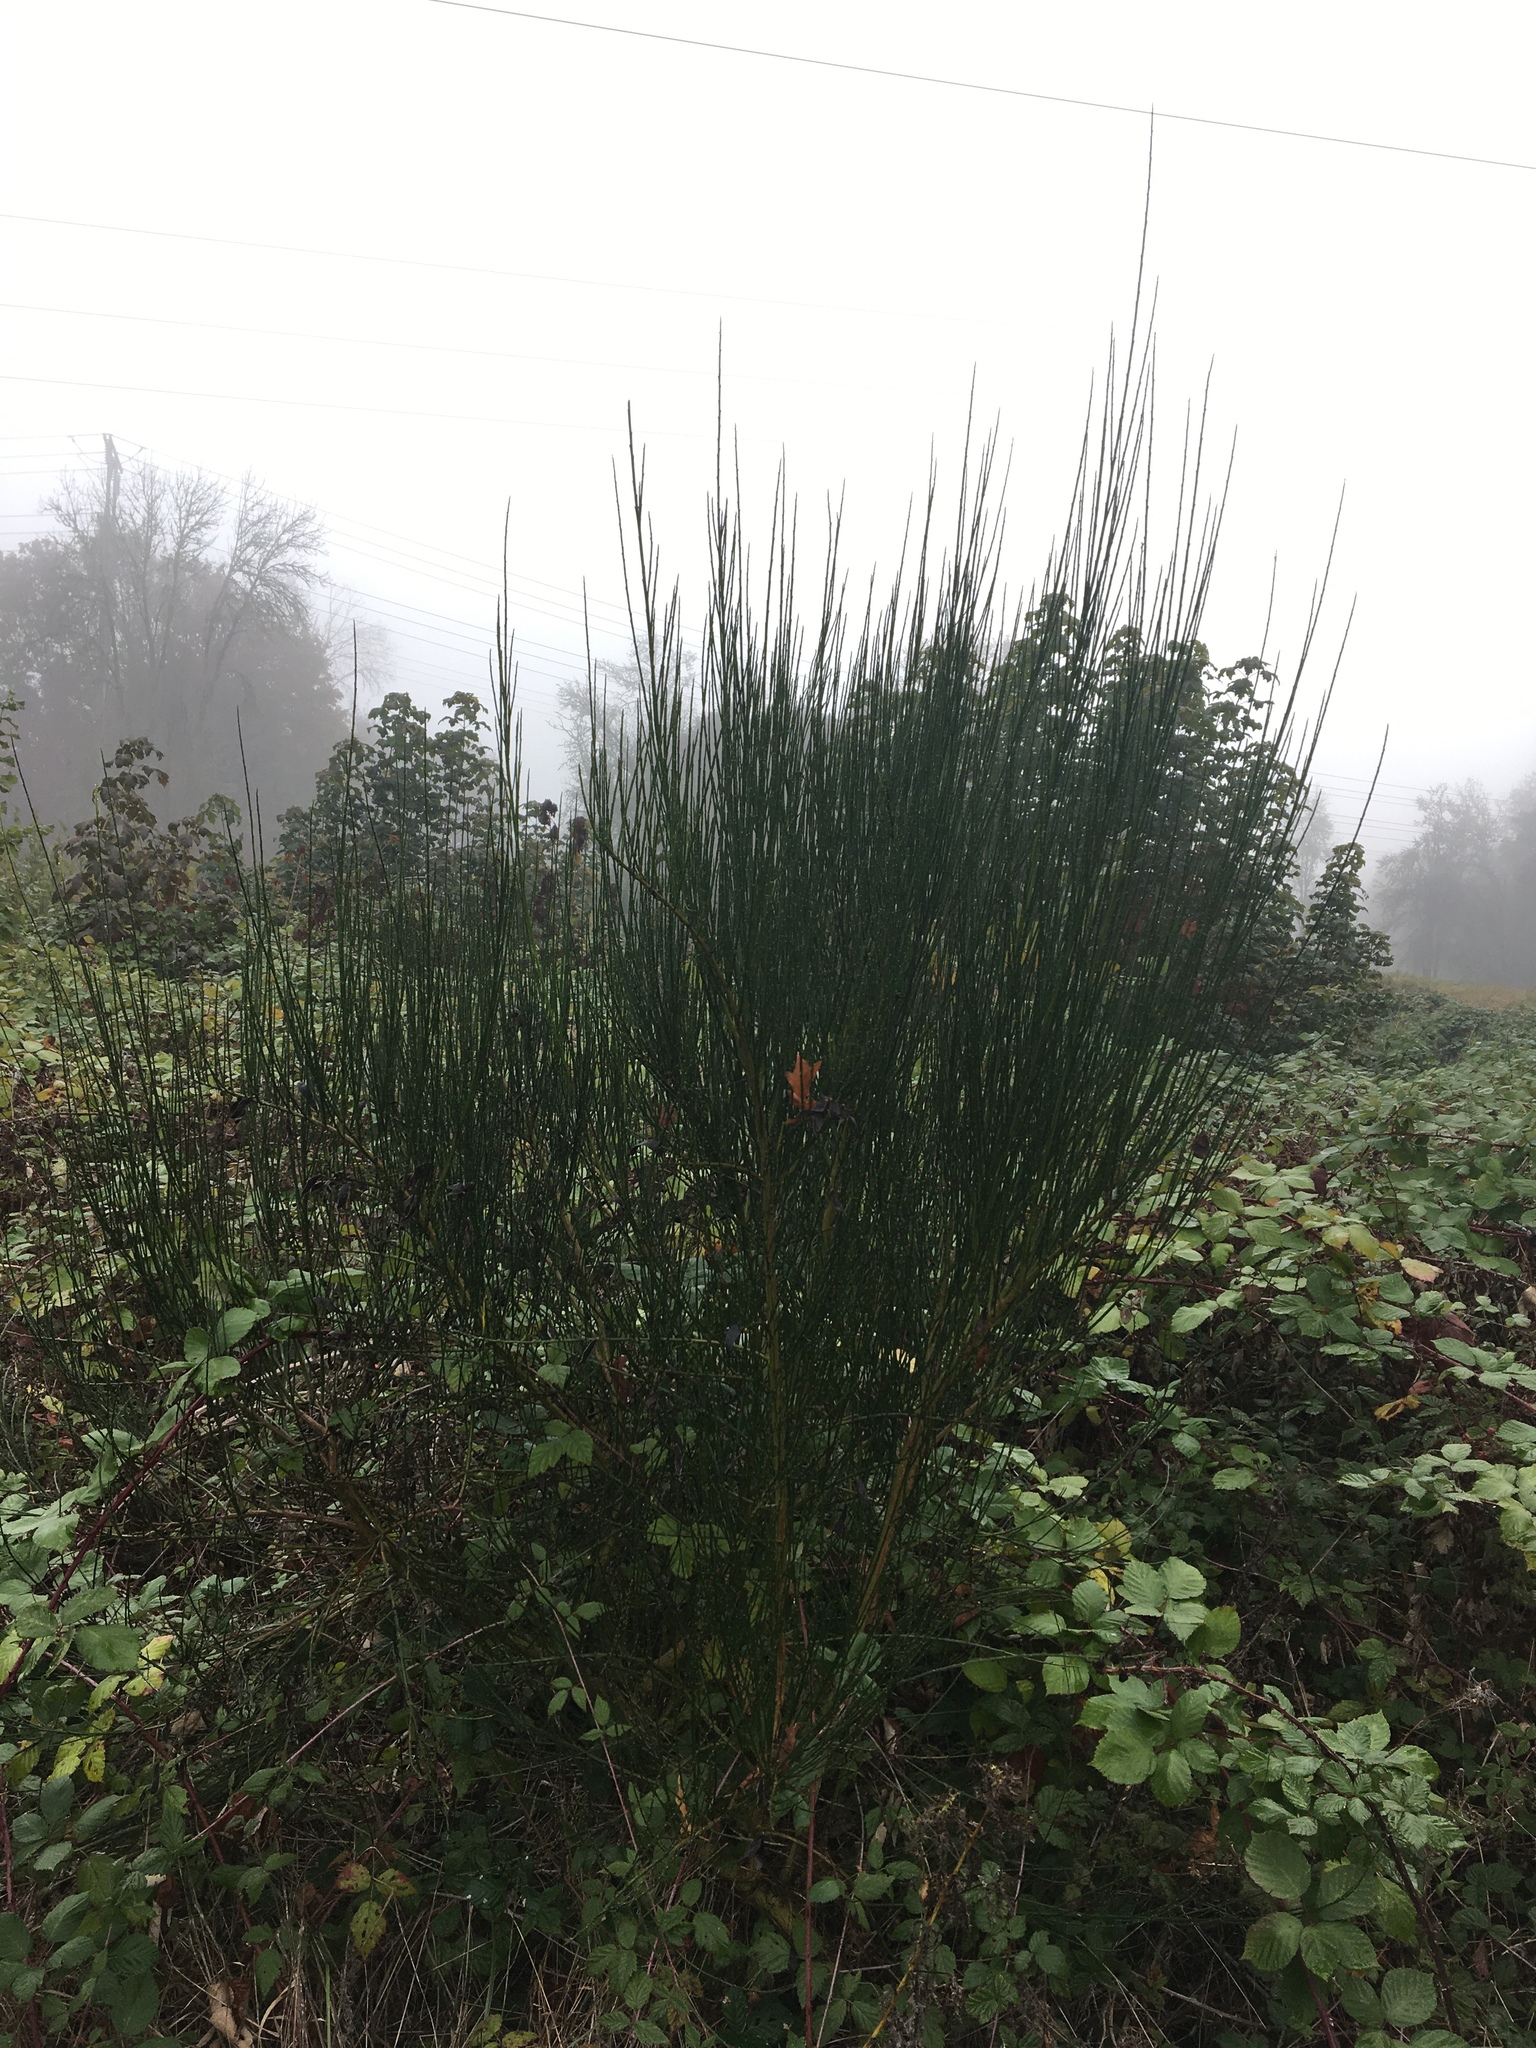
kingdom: Plantae
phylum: Tracheophyta
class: Magnoliopsida
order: Fabales
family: Fabaceae
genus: Cytisus
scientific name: Cytisus scoparius
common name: Scotch broom
